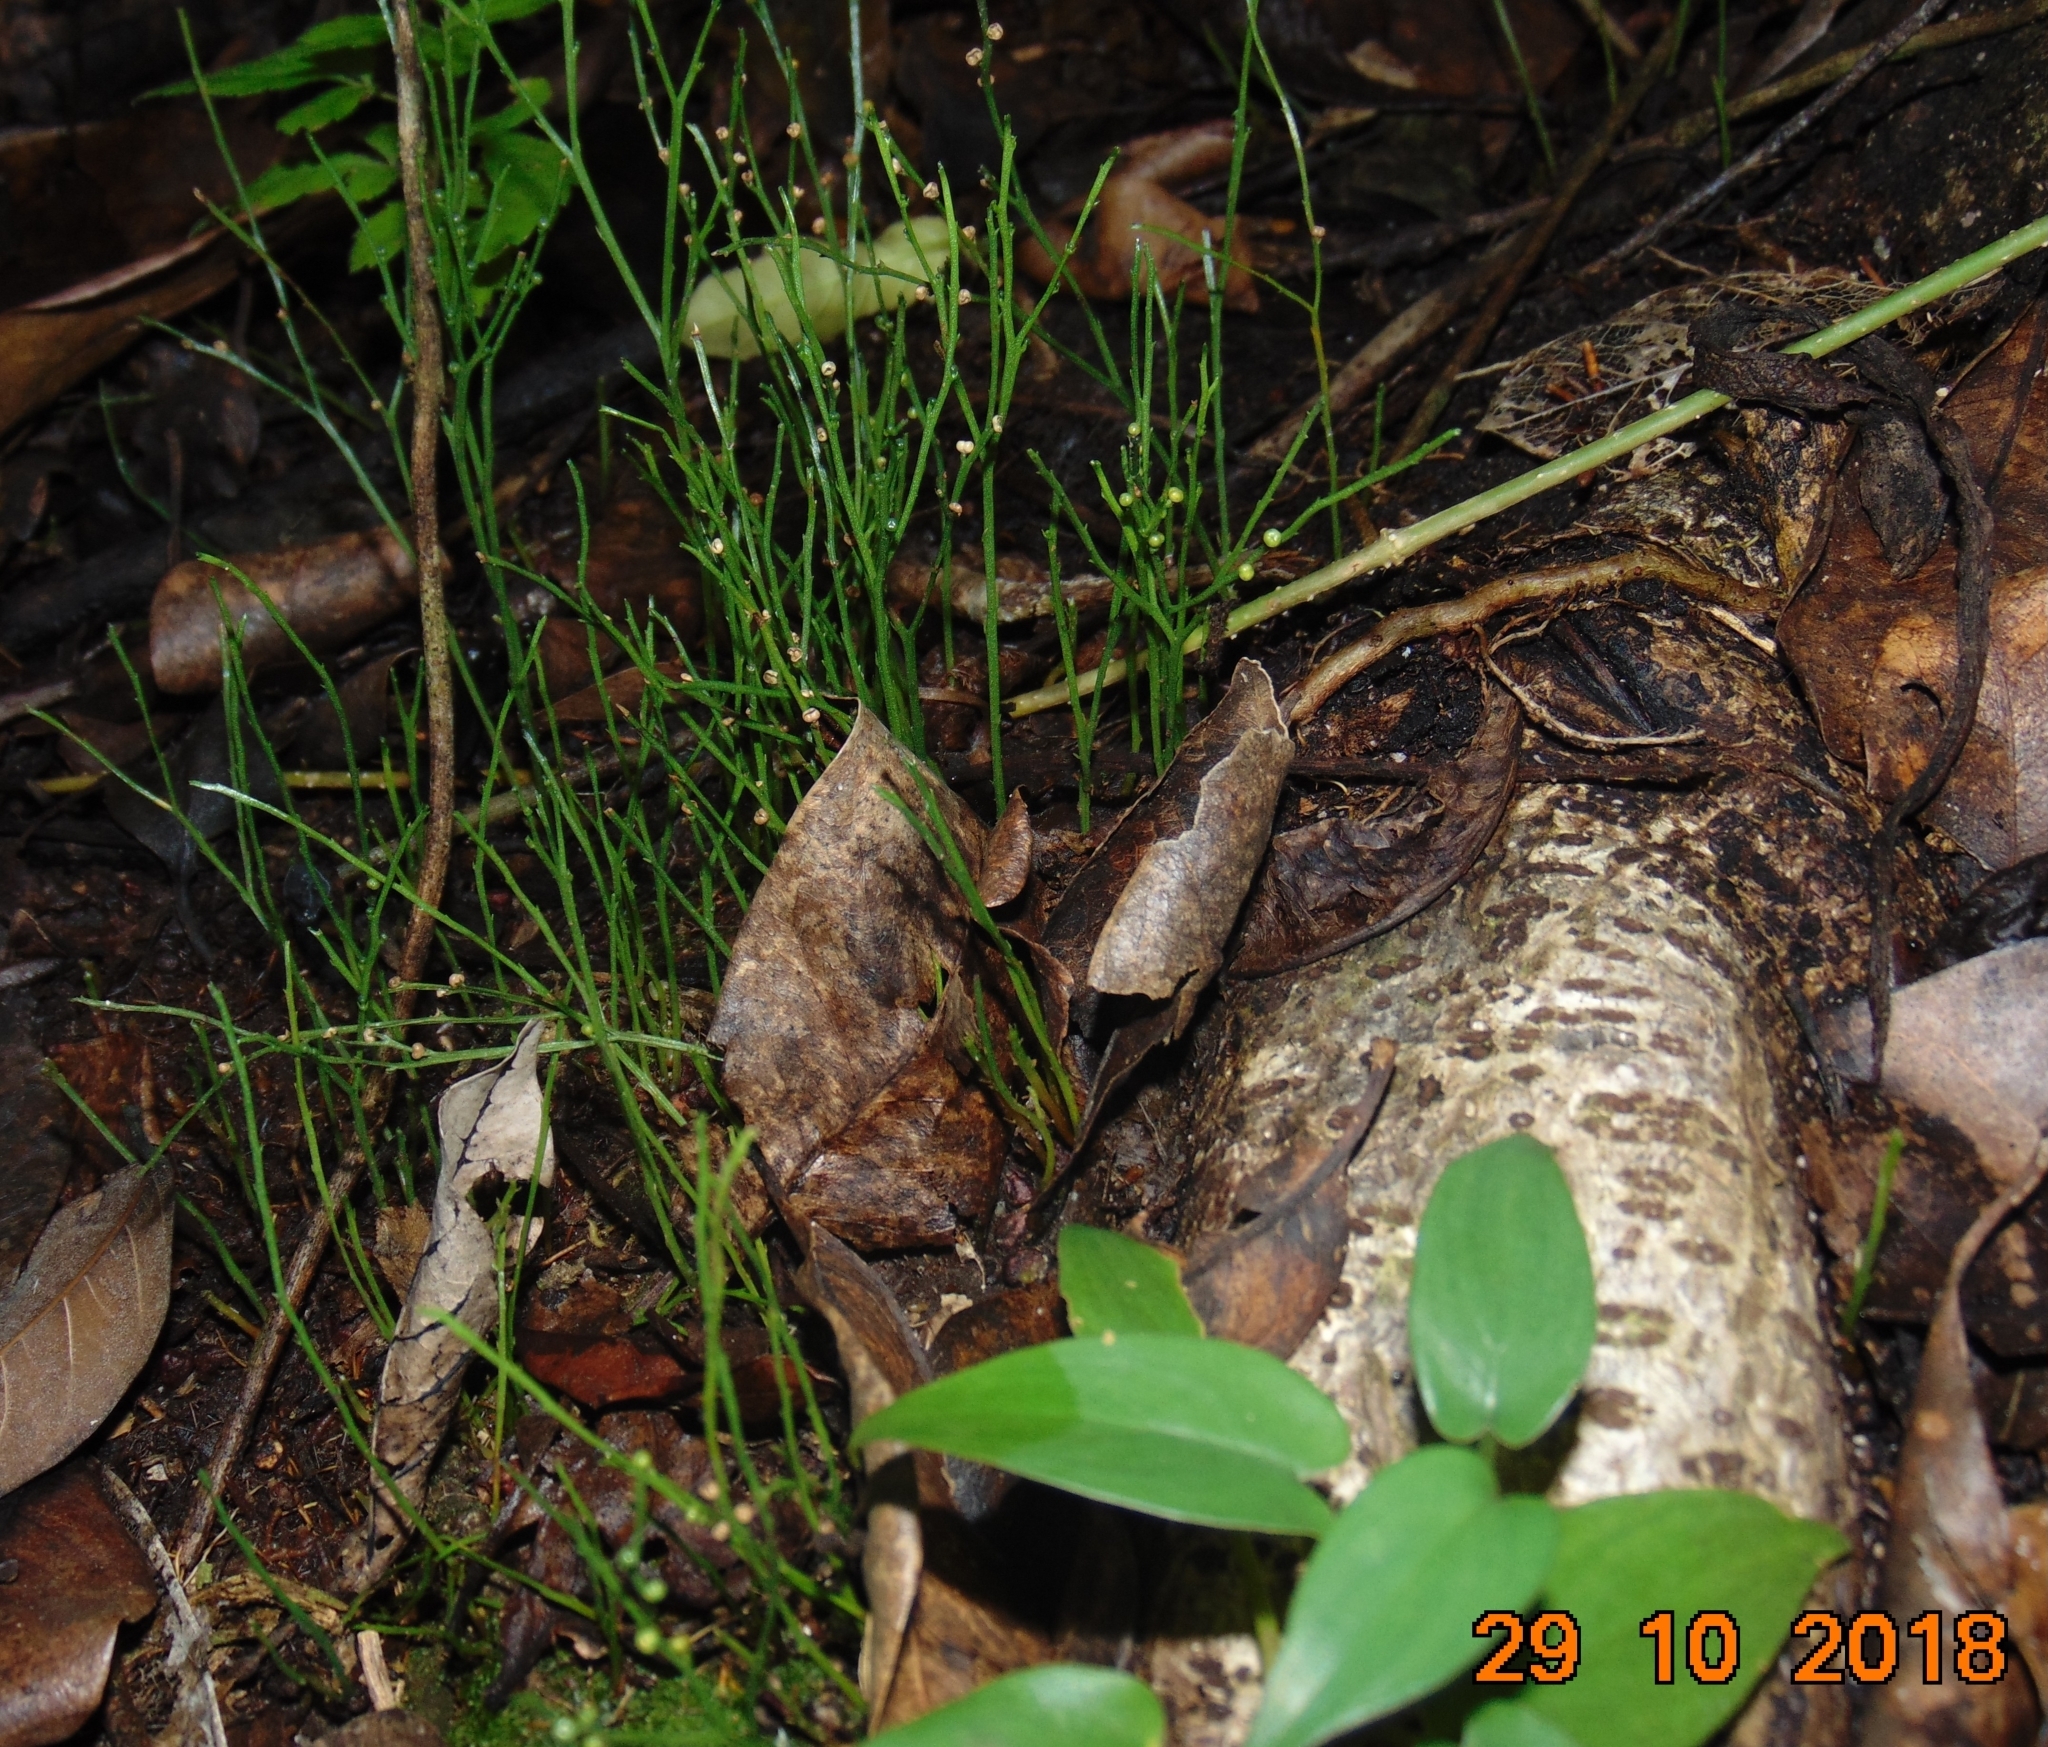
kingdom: Plantae
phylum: Tracheophyta
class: Polypodiopsida
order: Psilotales
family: Psilotaceae
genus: Psilotum
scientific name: Psilotum nudum
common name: Skeleton fork fern
